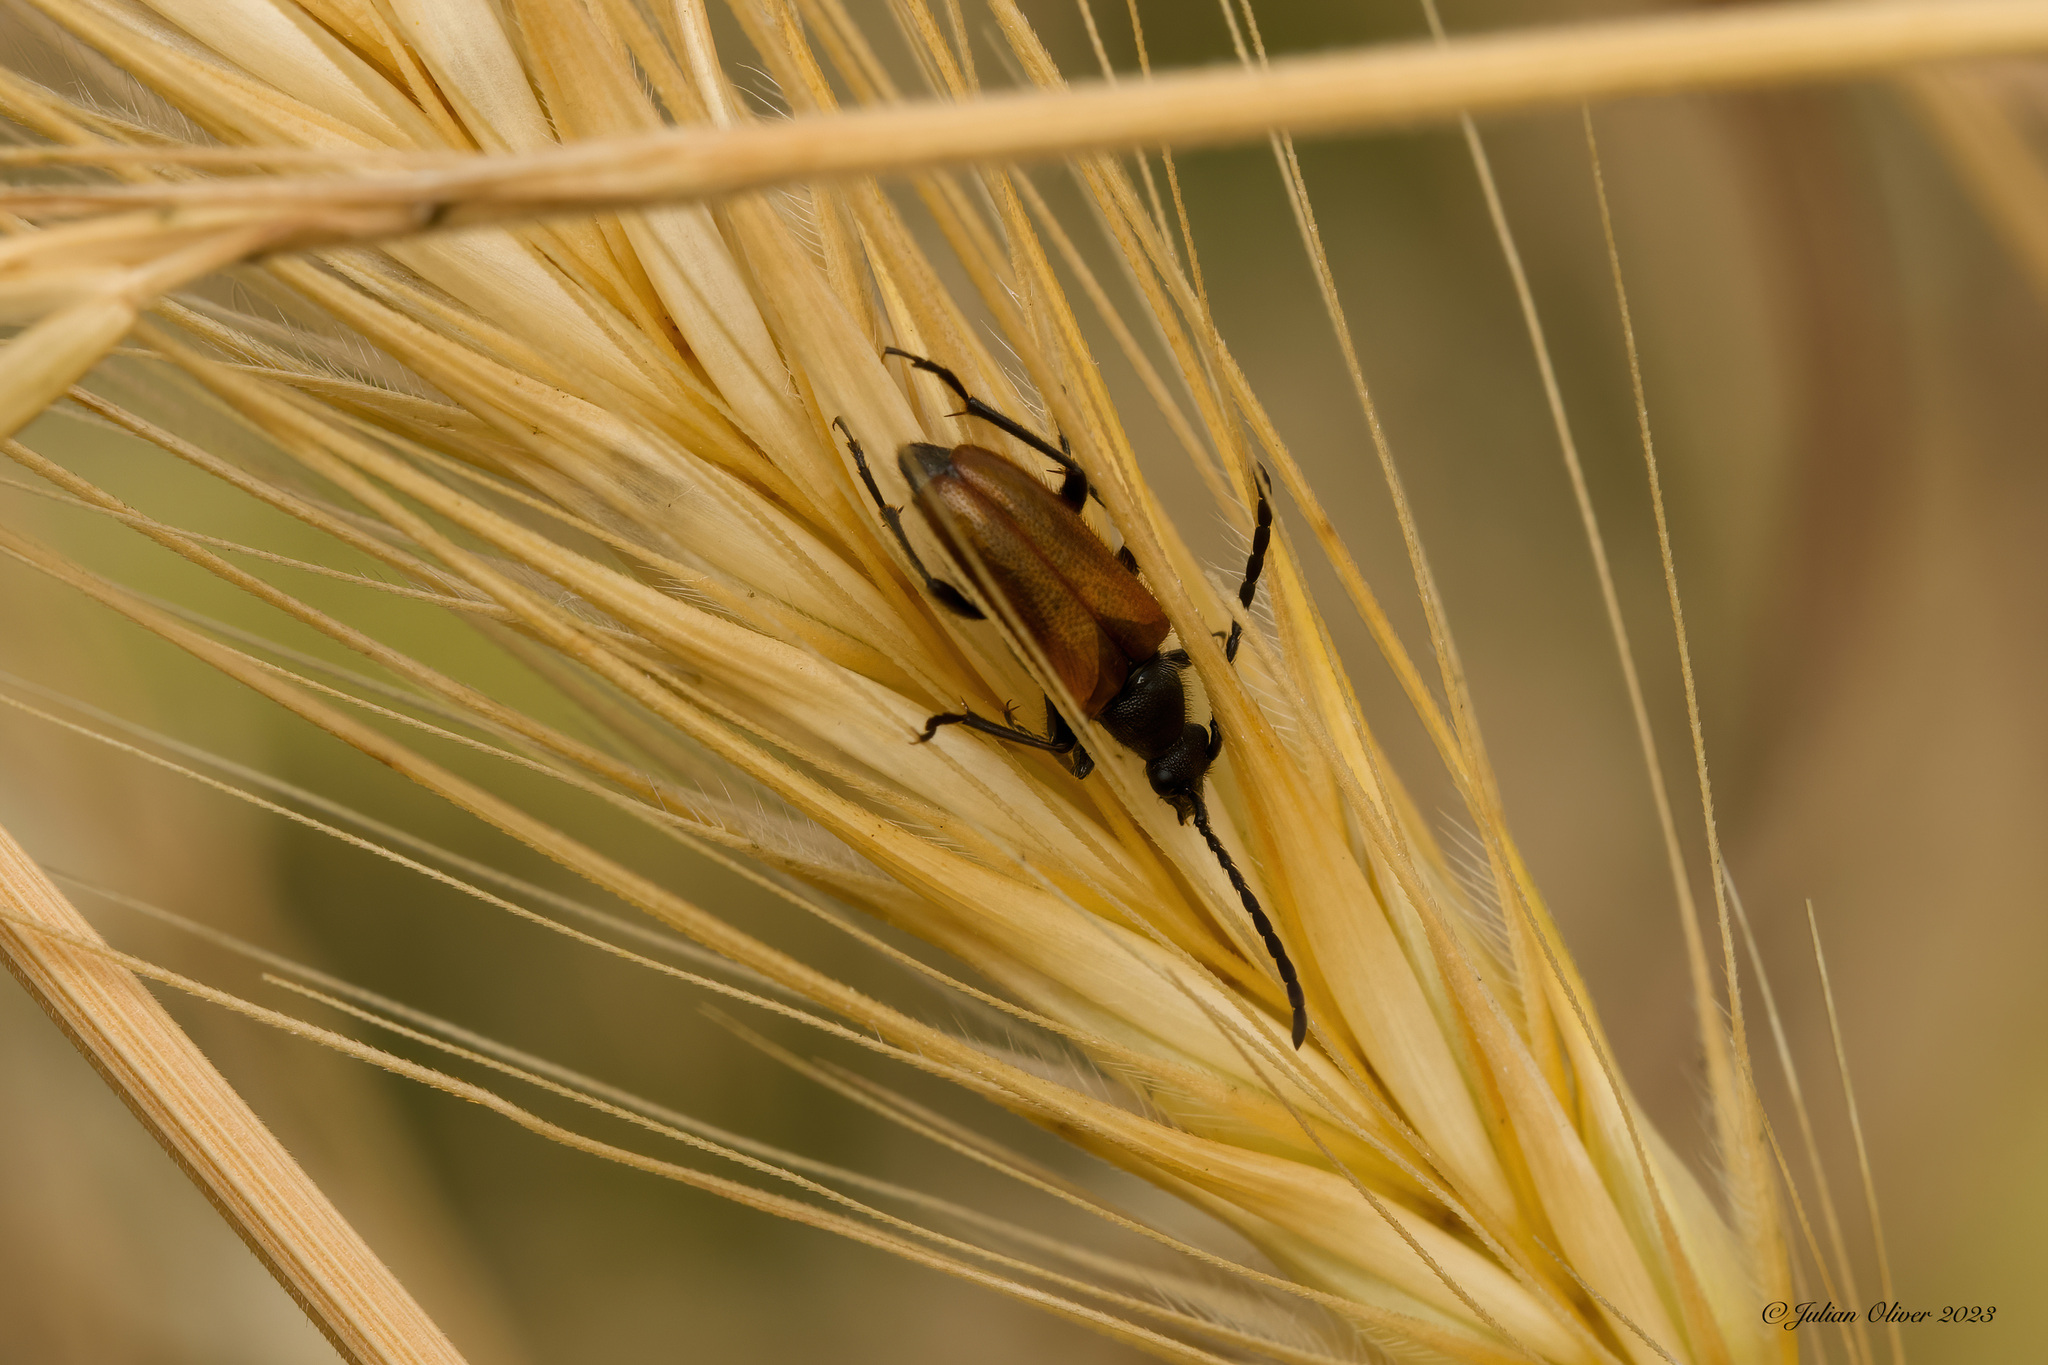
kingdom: Animalia
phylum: Arthropoda
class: Insecta
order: Coleoptera
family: Cerambycidae
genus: Pseudovadonia
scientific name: Pseudovadonia livida
